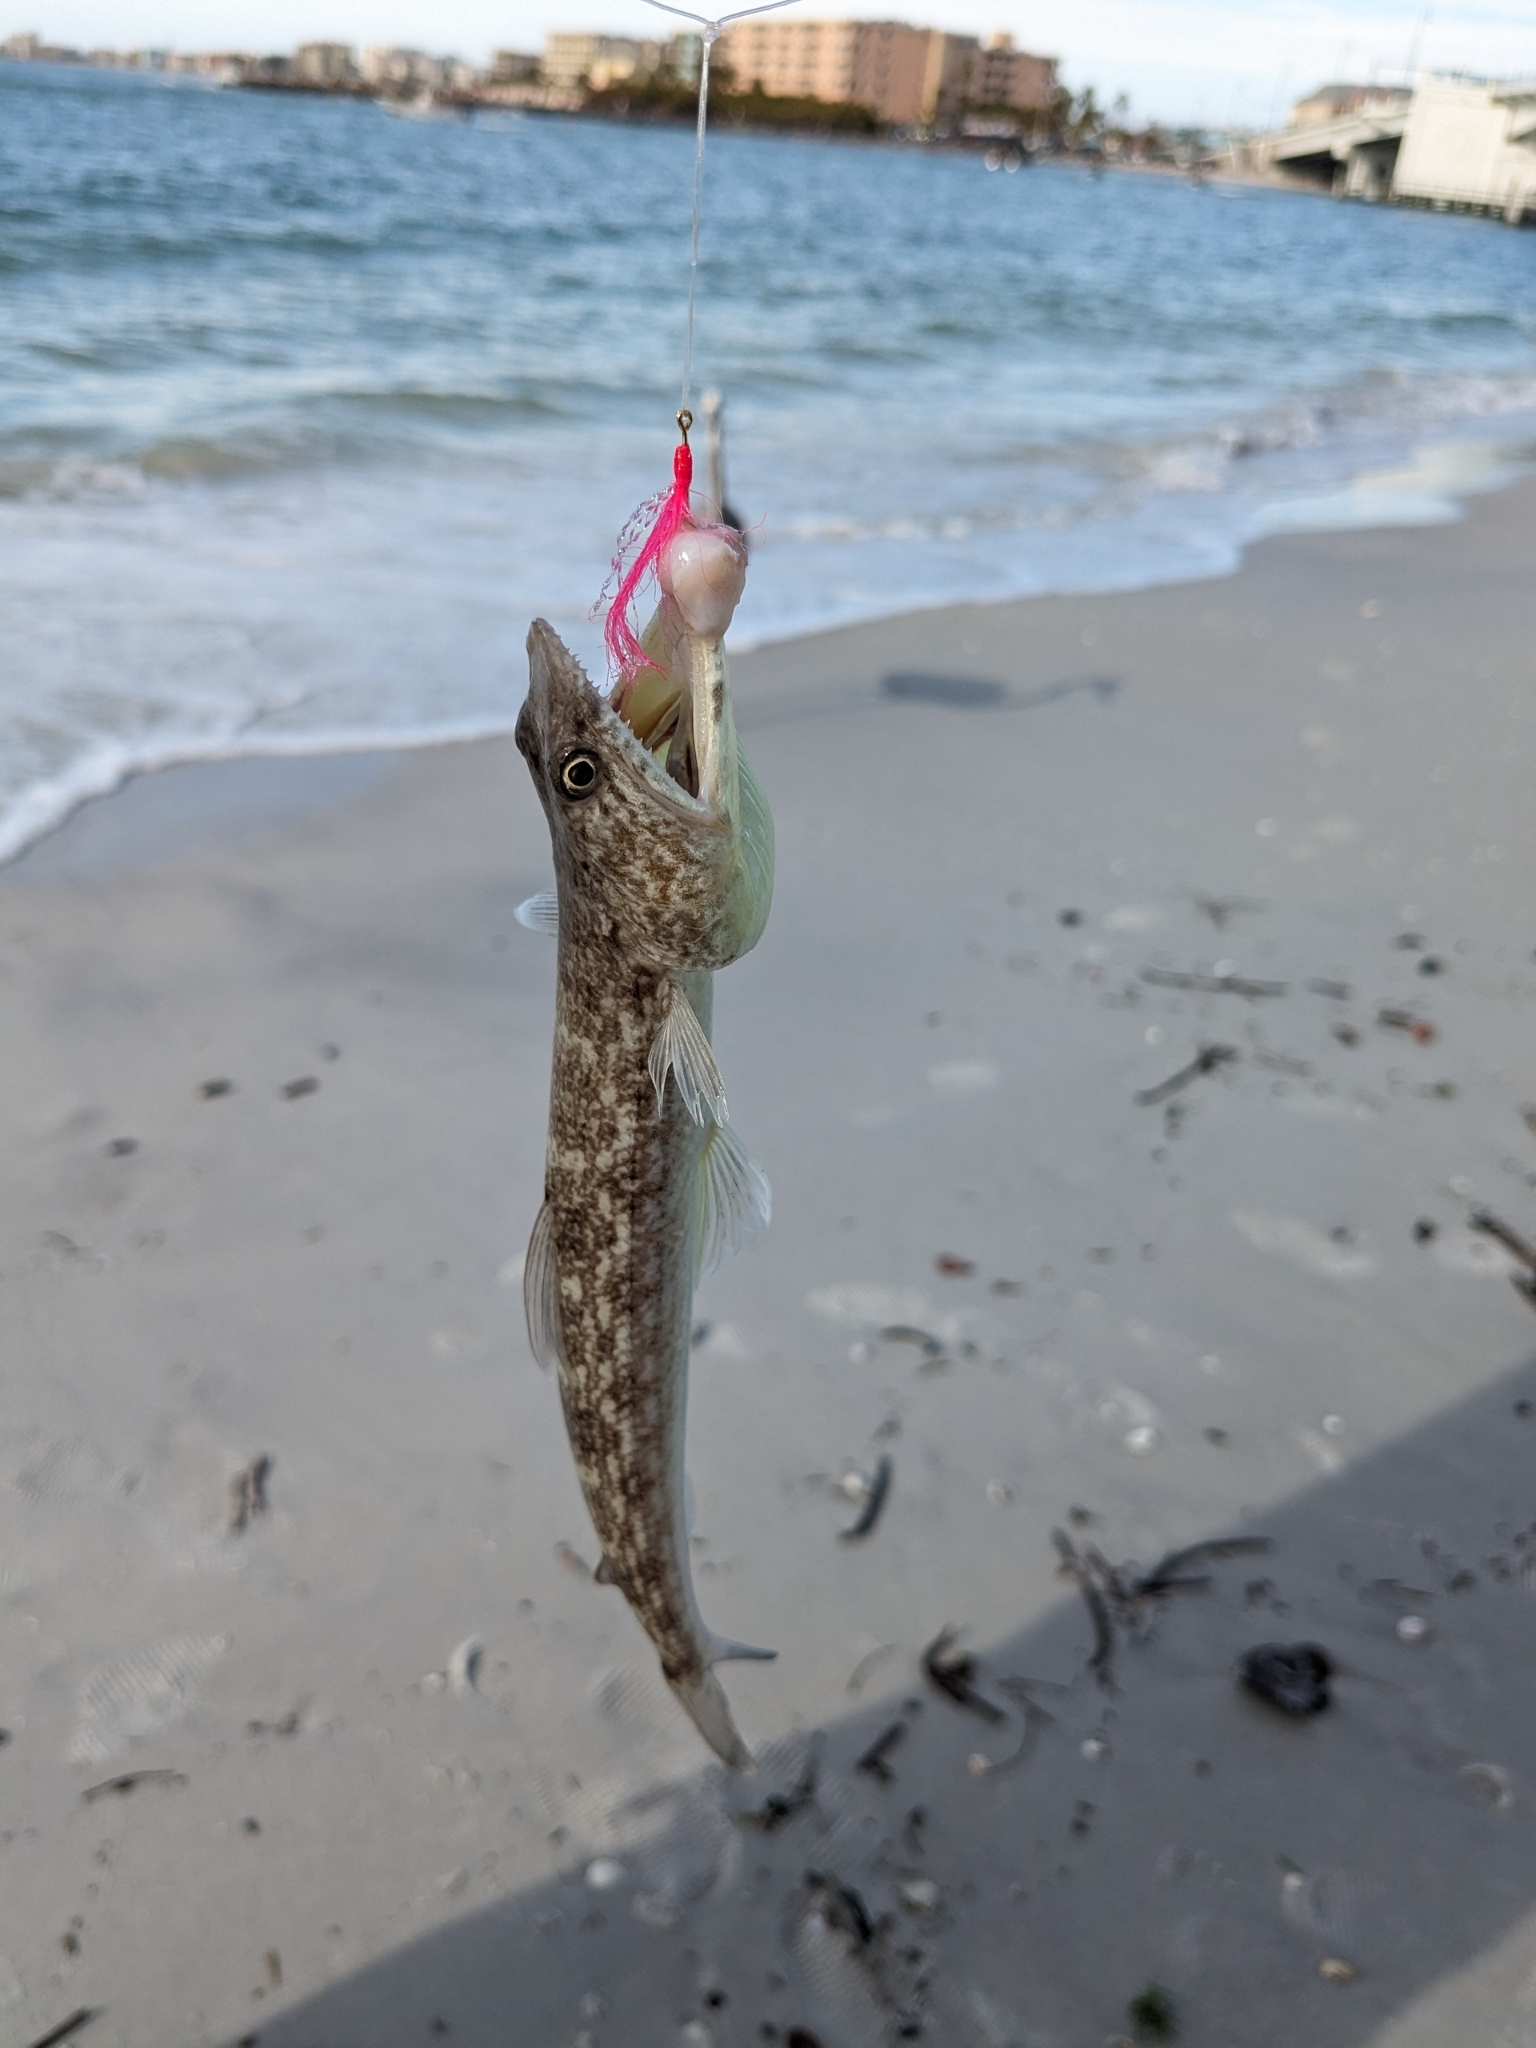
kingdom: Animalia
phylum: Chordata
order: Aulopiformes
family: Synodontidae
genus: Synodus
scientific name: Synodus foetens
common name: Inshore lizardfish
